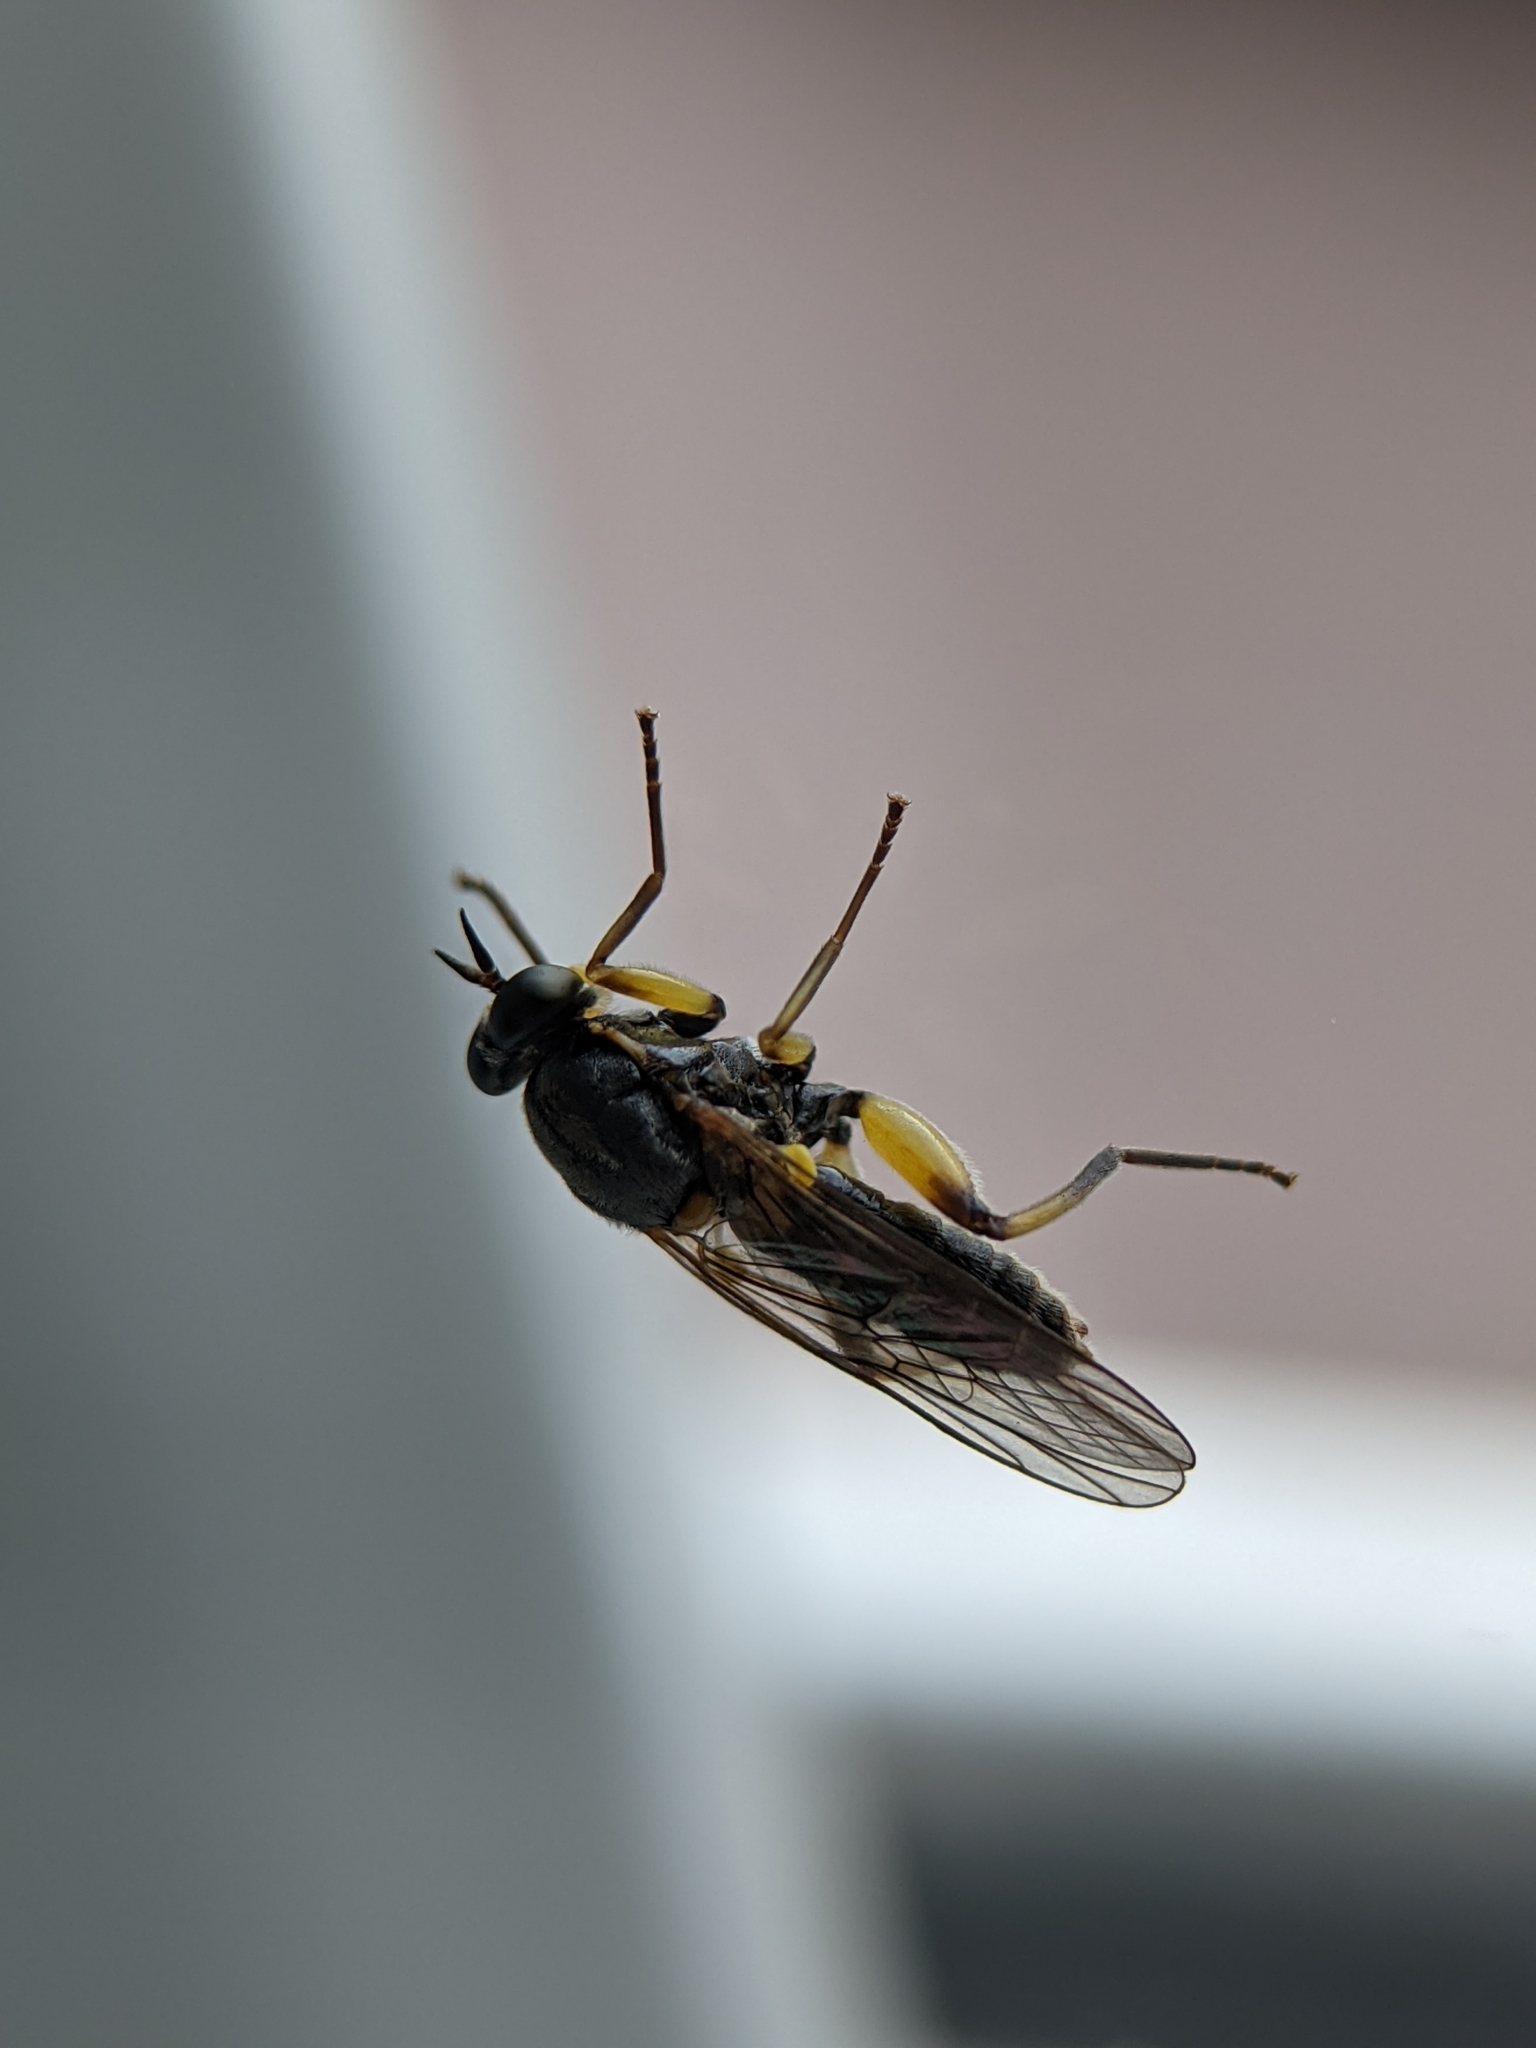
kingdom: Animalia
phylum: Arthropoda
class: Insecta
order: Diptera
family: Xylomyidae
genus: Solva
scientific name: Solva marginata
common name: Drab wood-soldierfly
